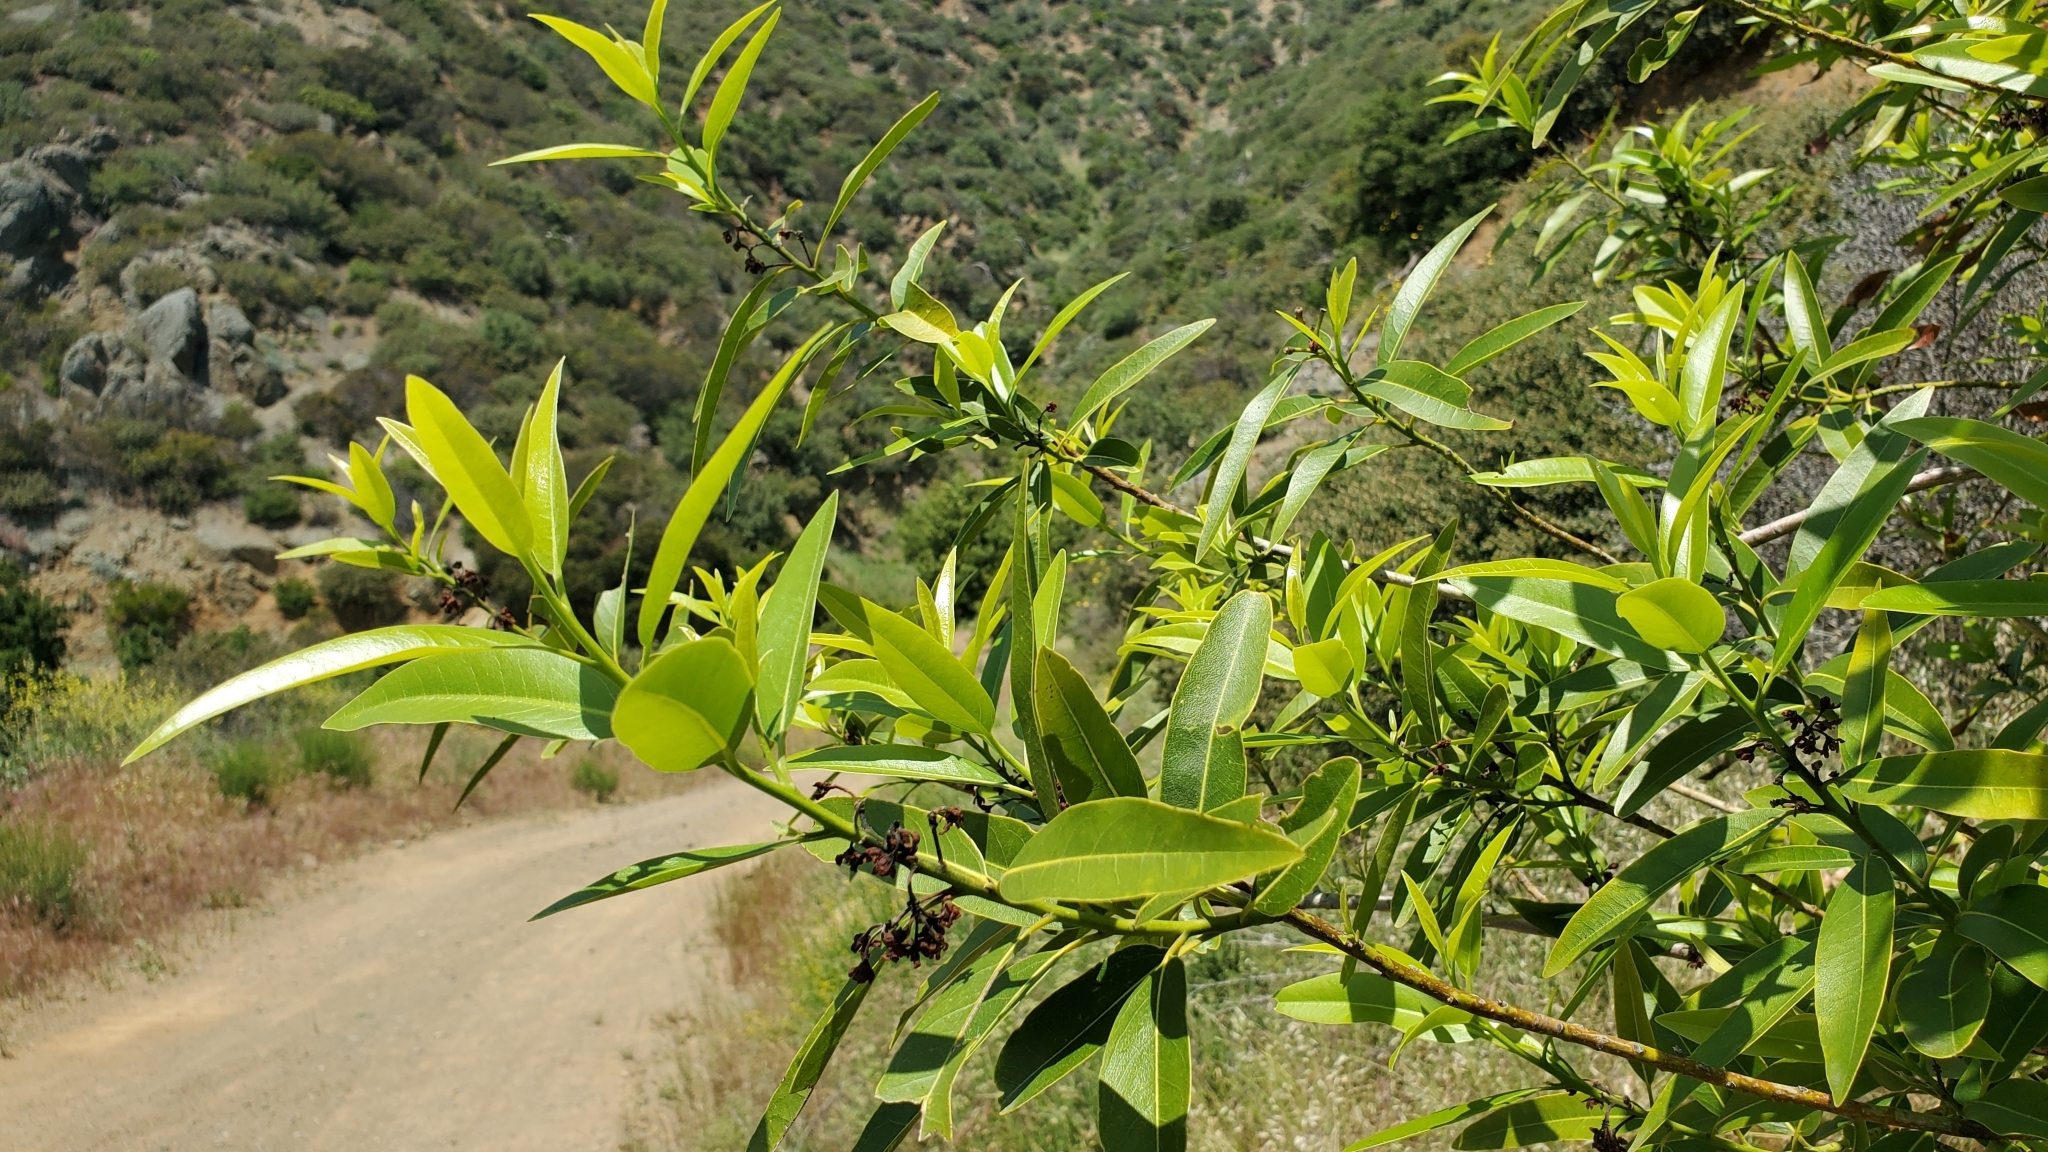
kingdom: Plantae
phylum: Tracheophyta
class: Magnoliopsida
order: Laurales
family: Lauraceae
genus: Umbellularia
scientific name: Umbellularia californica
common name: California bay
